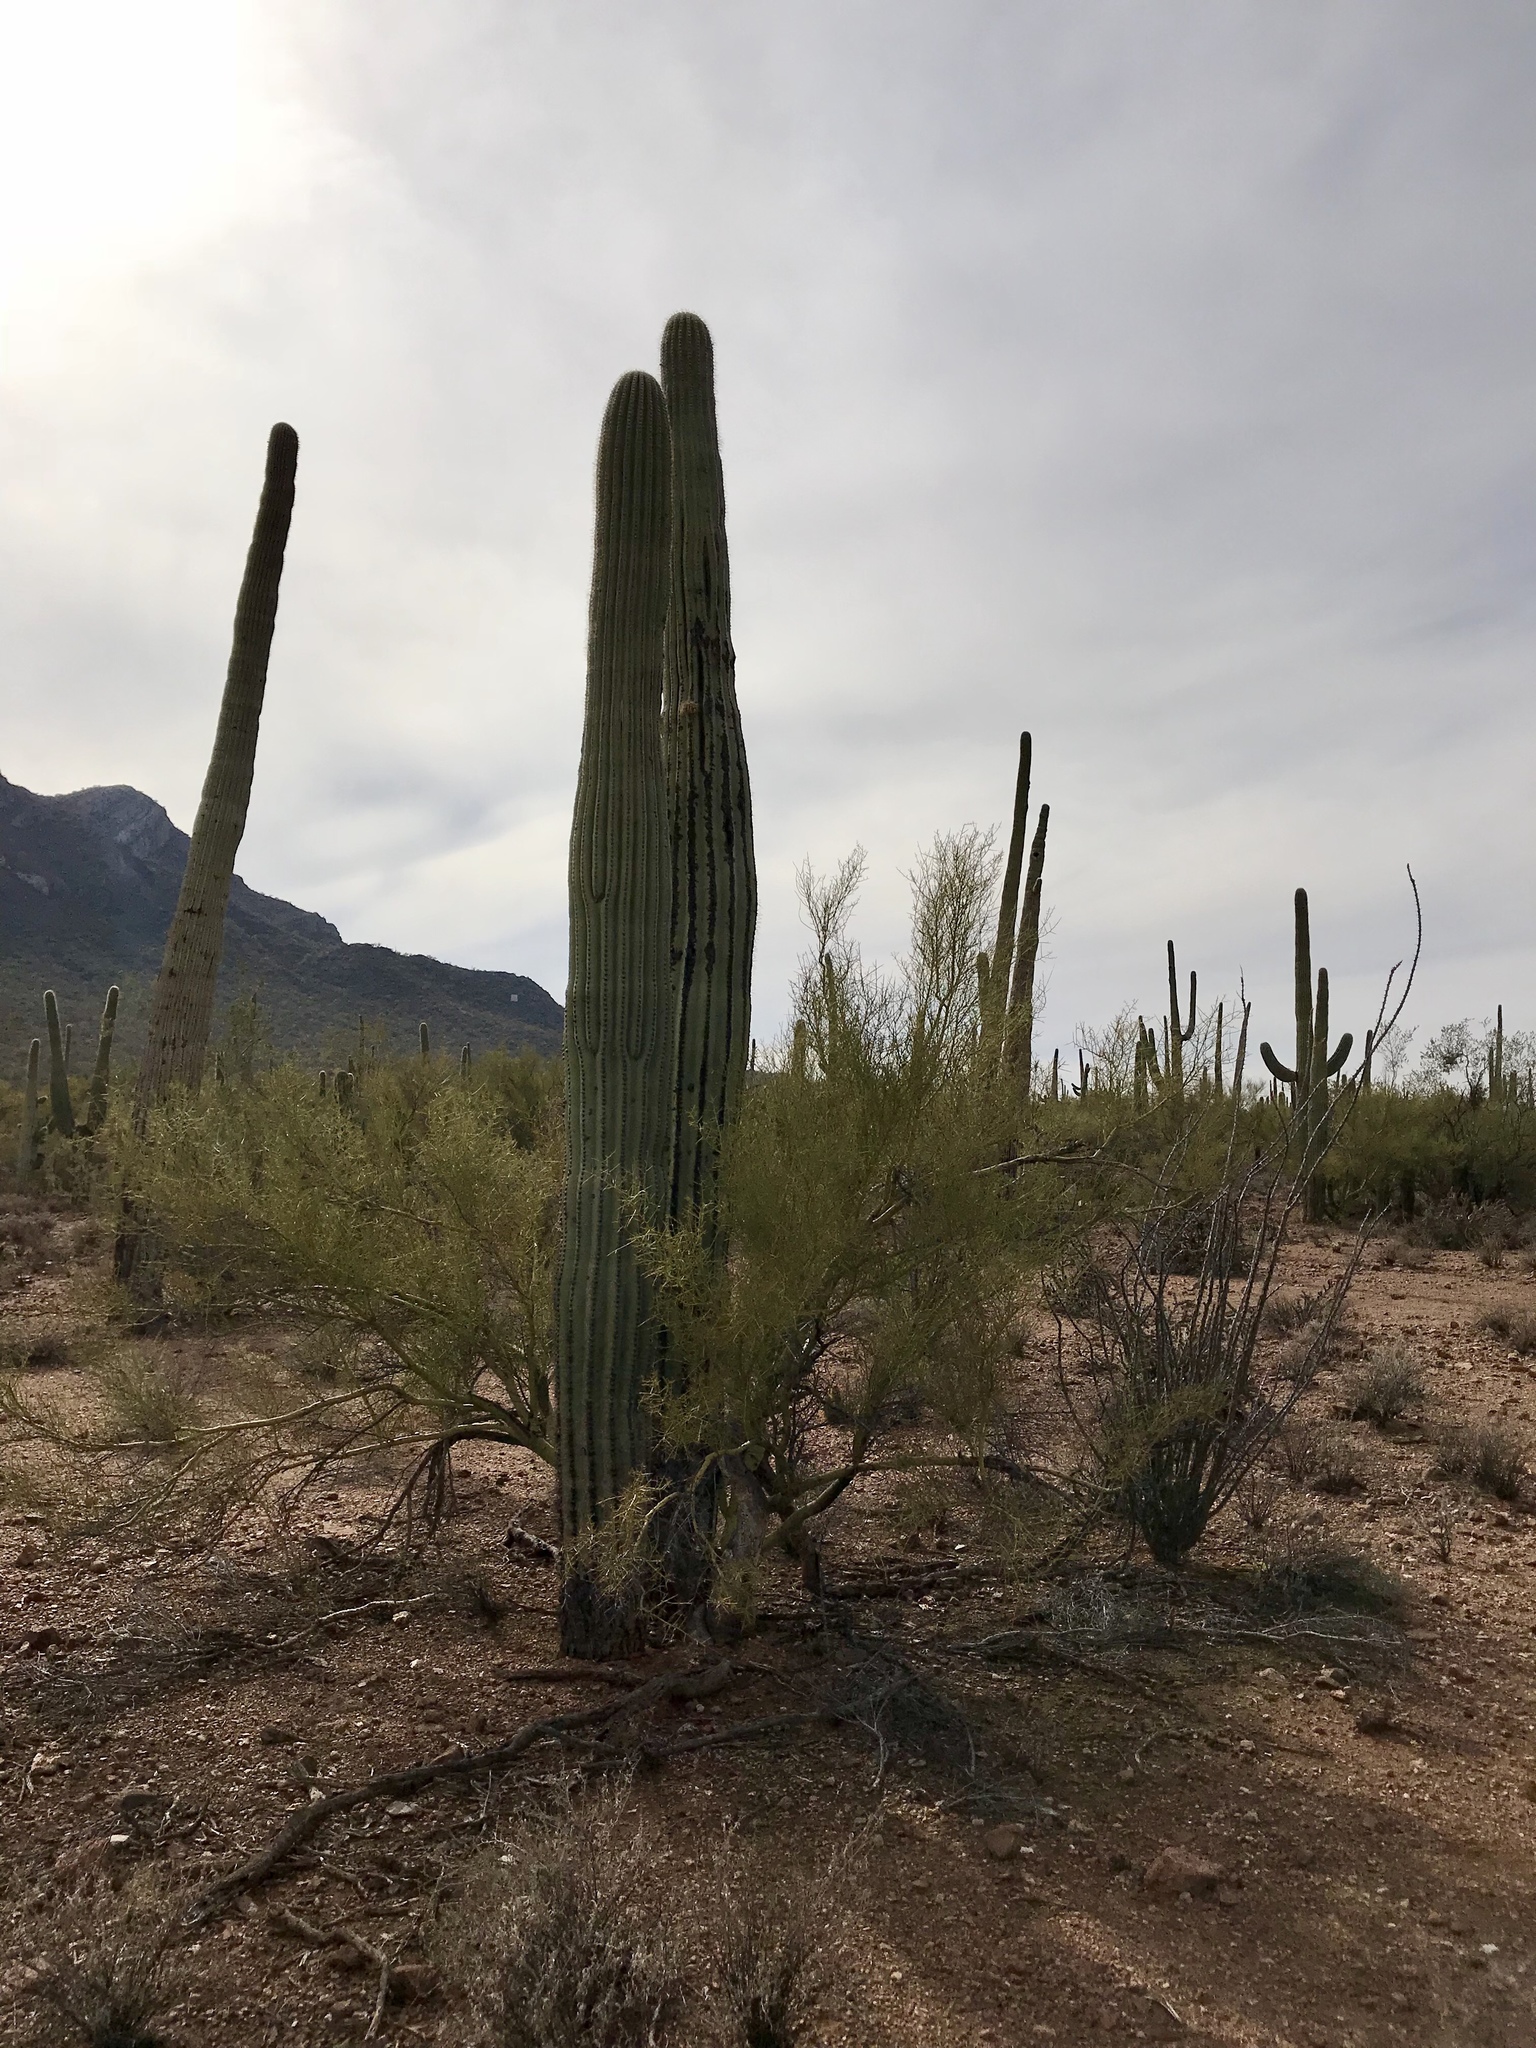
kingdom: Plantae
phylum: Tracheophyta
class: Magnoliopsida
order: Caryophyllales
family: Cactaceae
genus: Carnegiea
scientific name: Carnegiea gigantea
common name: Saguaro
